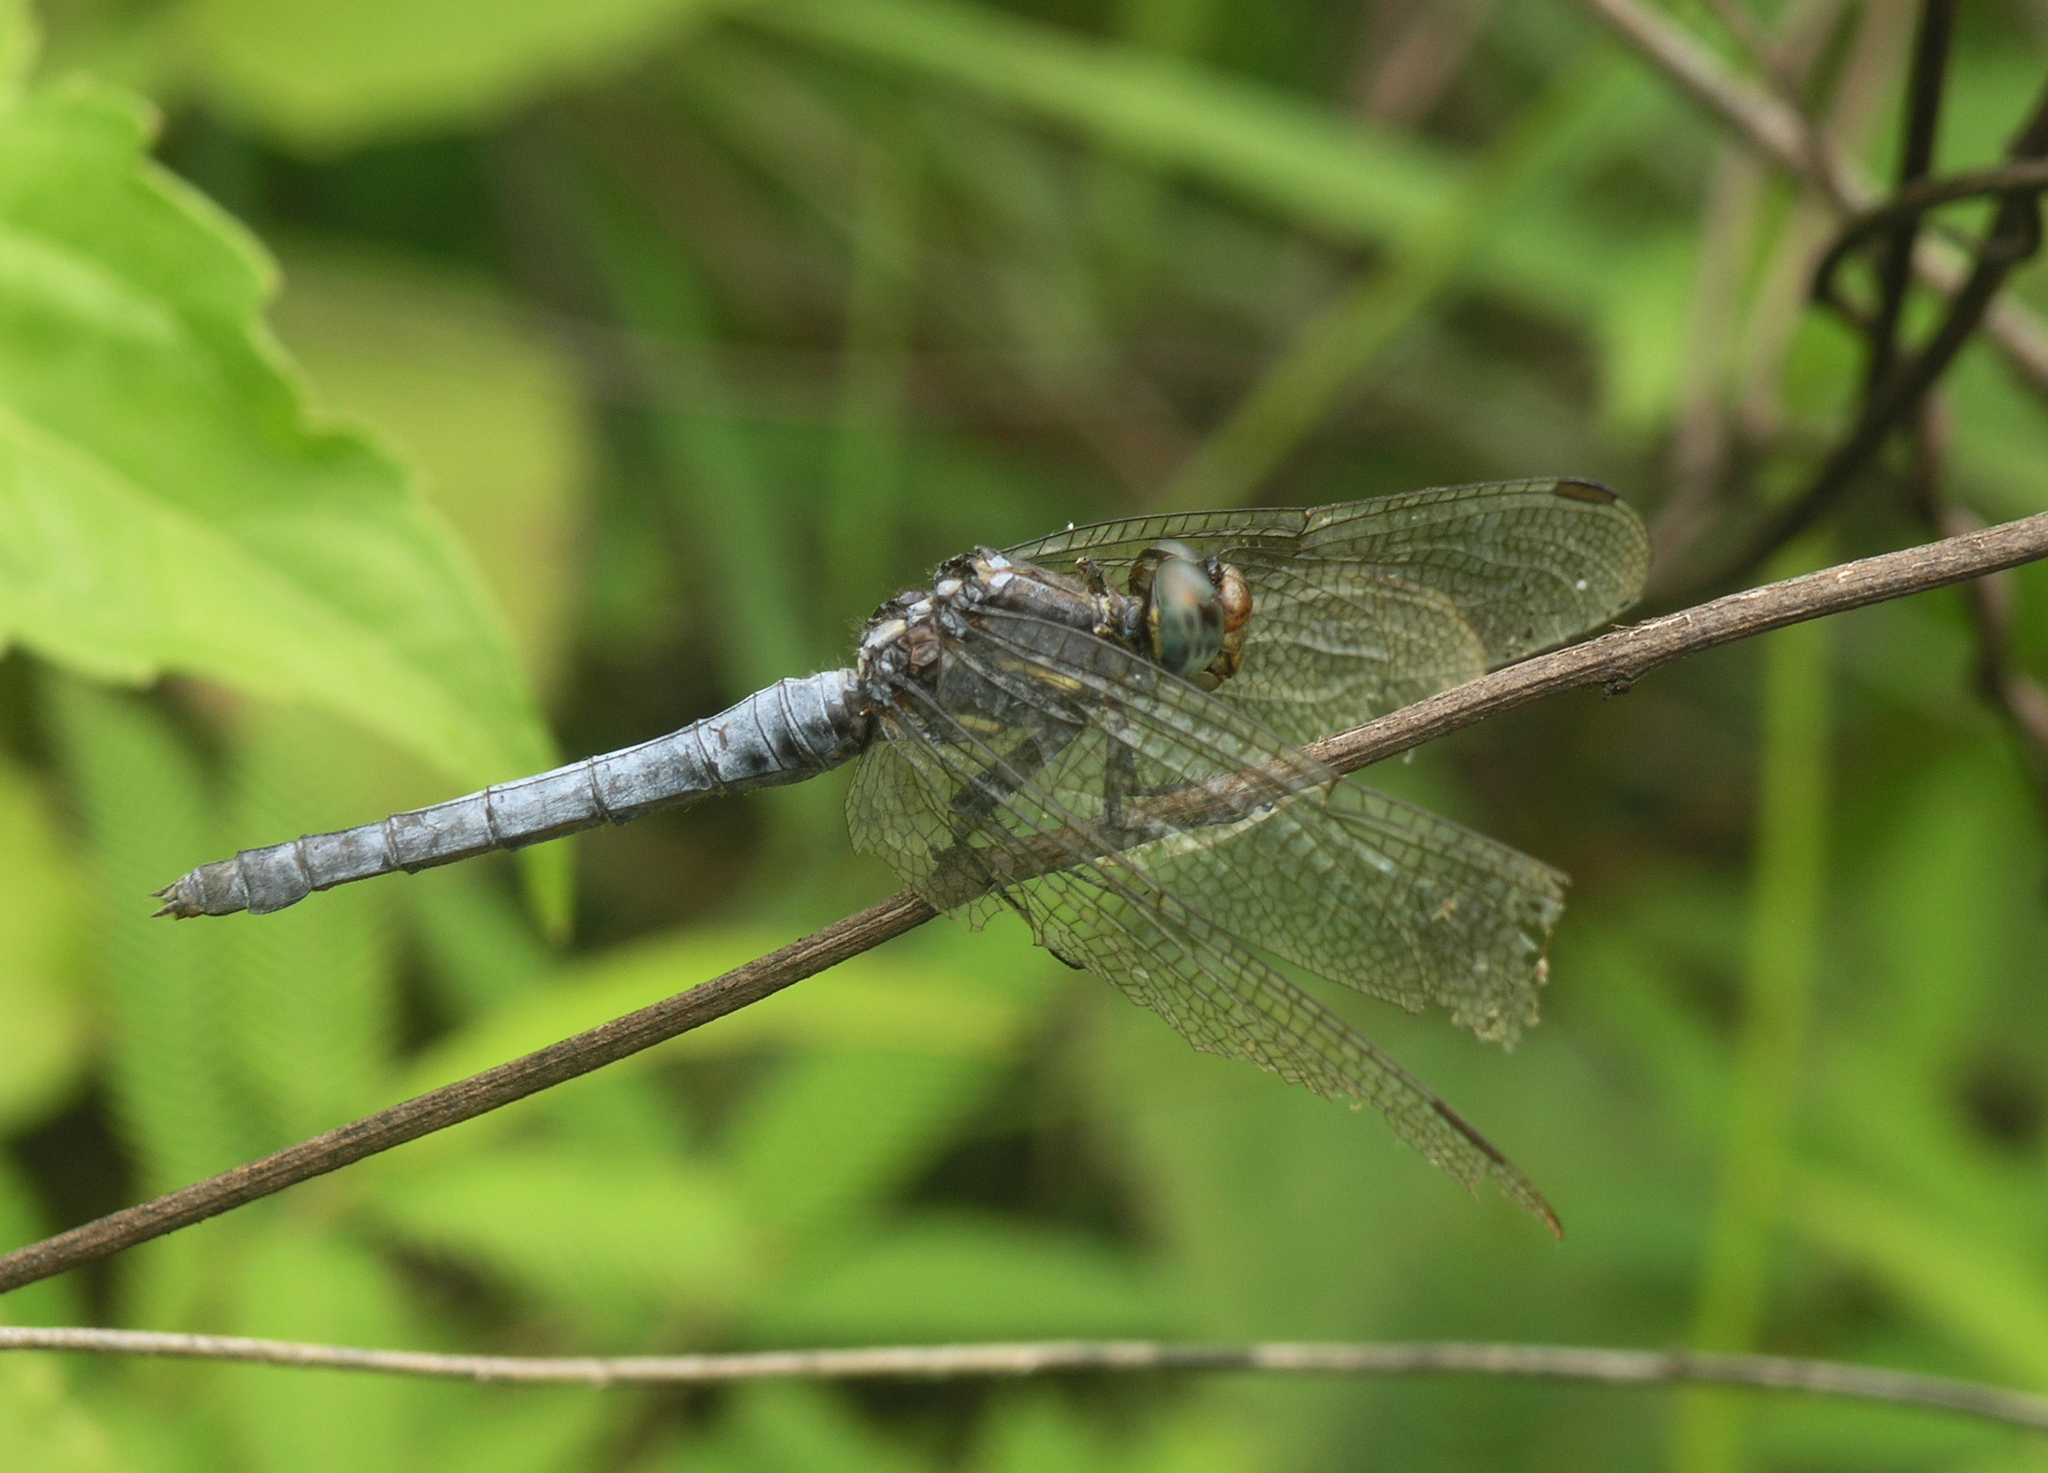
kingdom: Animalia
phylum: Arthropoda
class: Insecta
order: Odonata
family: Libellulidae
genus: Orthetrum
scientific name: Orthetrum glaucum
